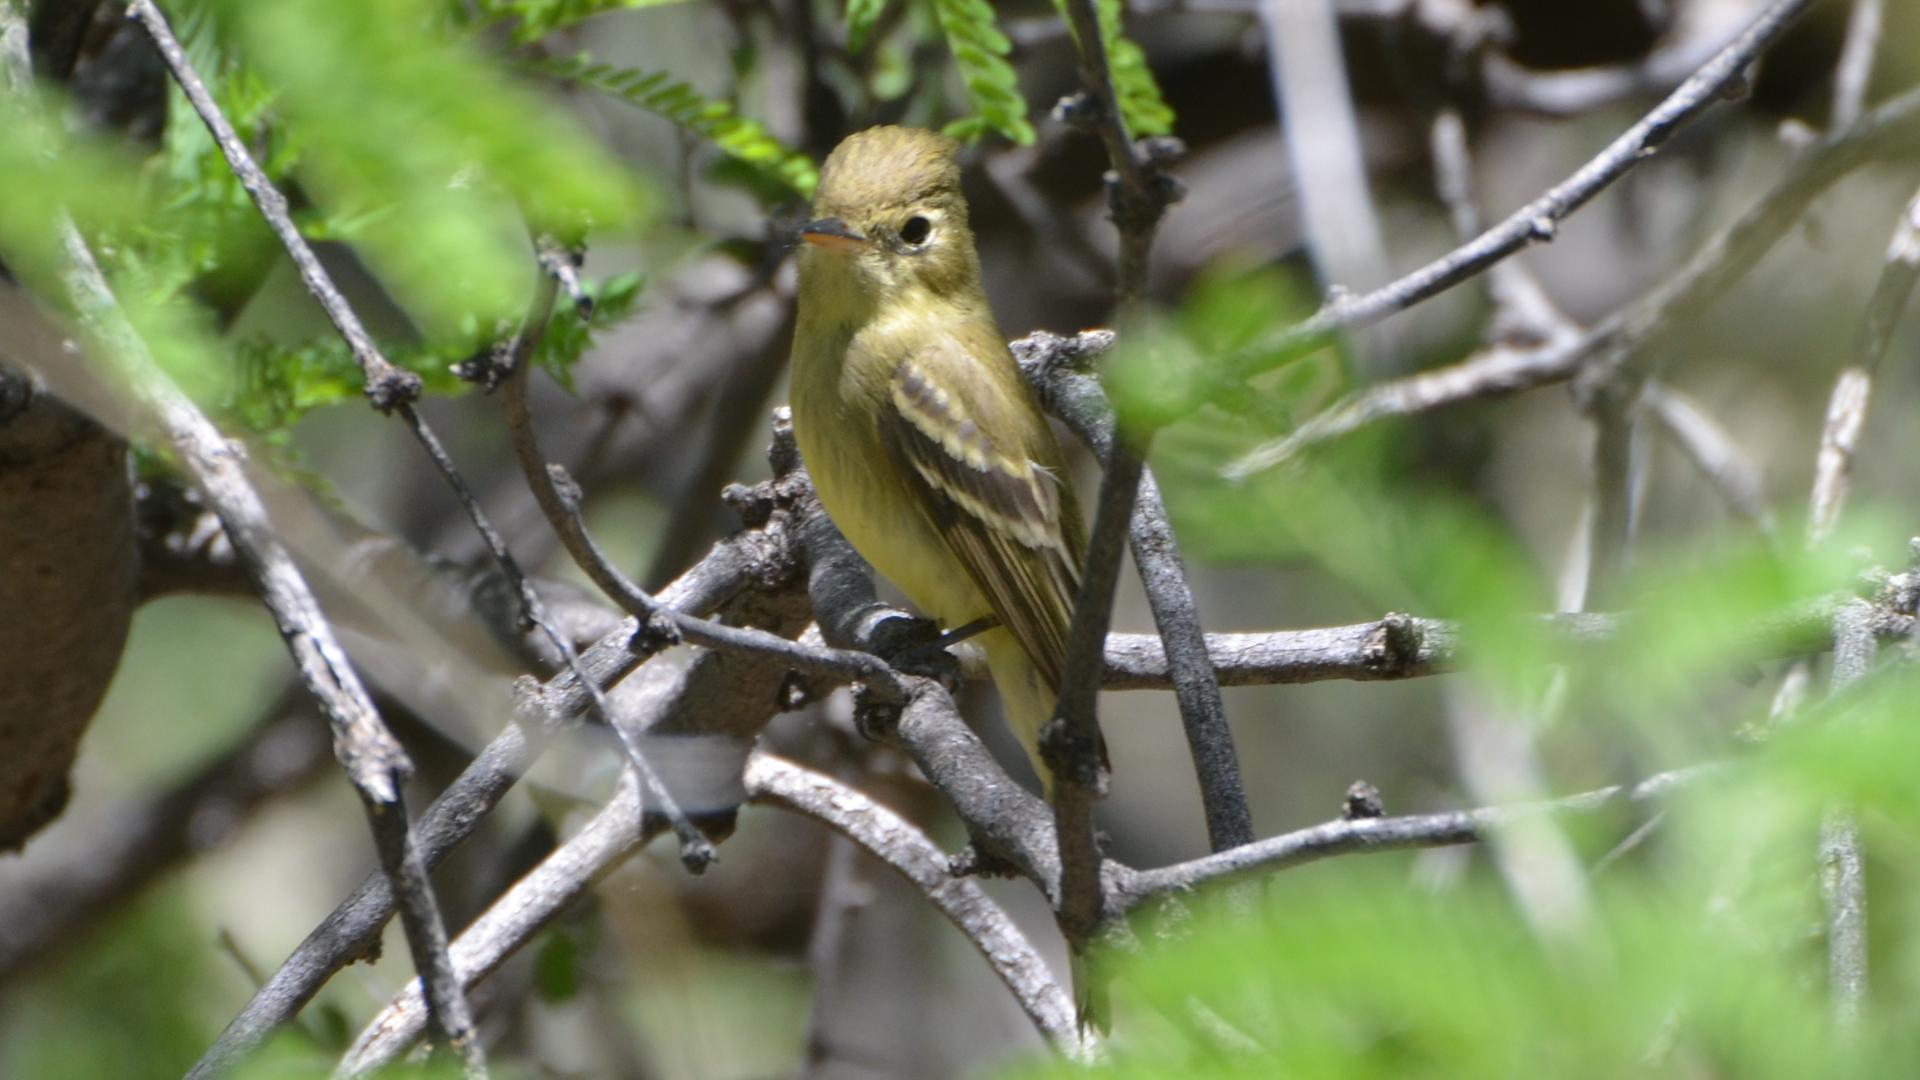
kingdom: Animalia
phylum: Chordata
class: Aves
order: Passeriformes
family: Tyrannidae
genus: Empidonax
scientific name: Empidonax difficilis
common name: Pacific-slope flycatcher
